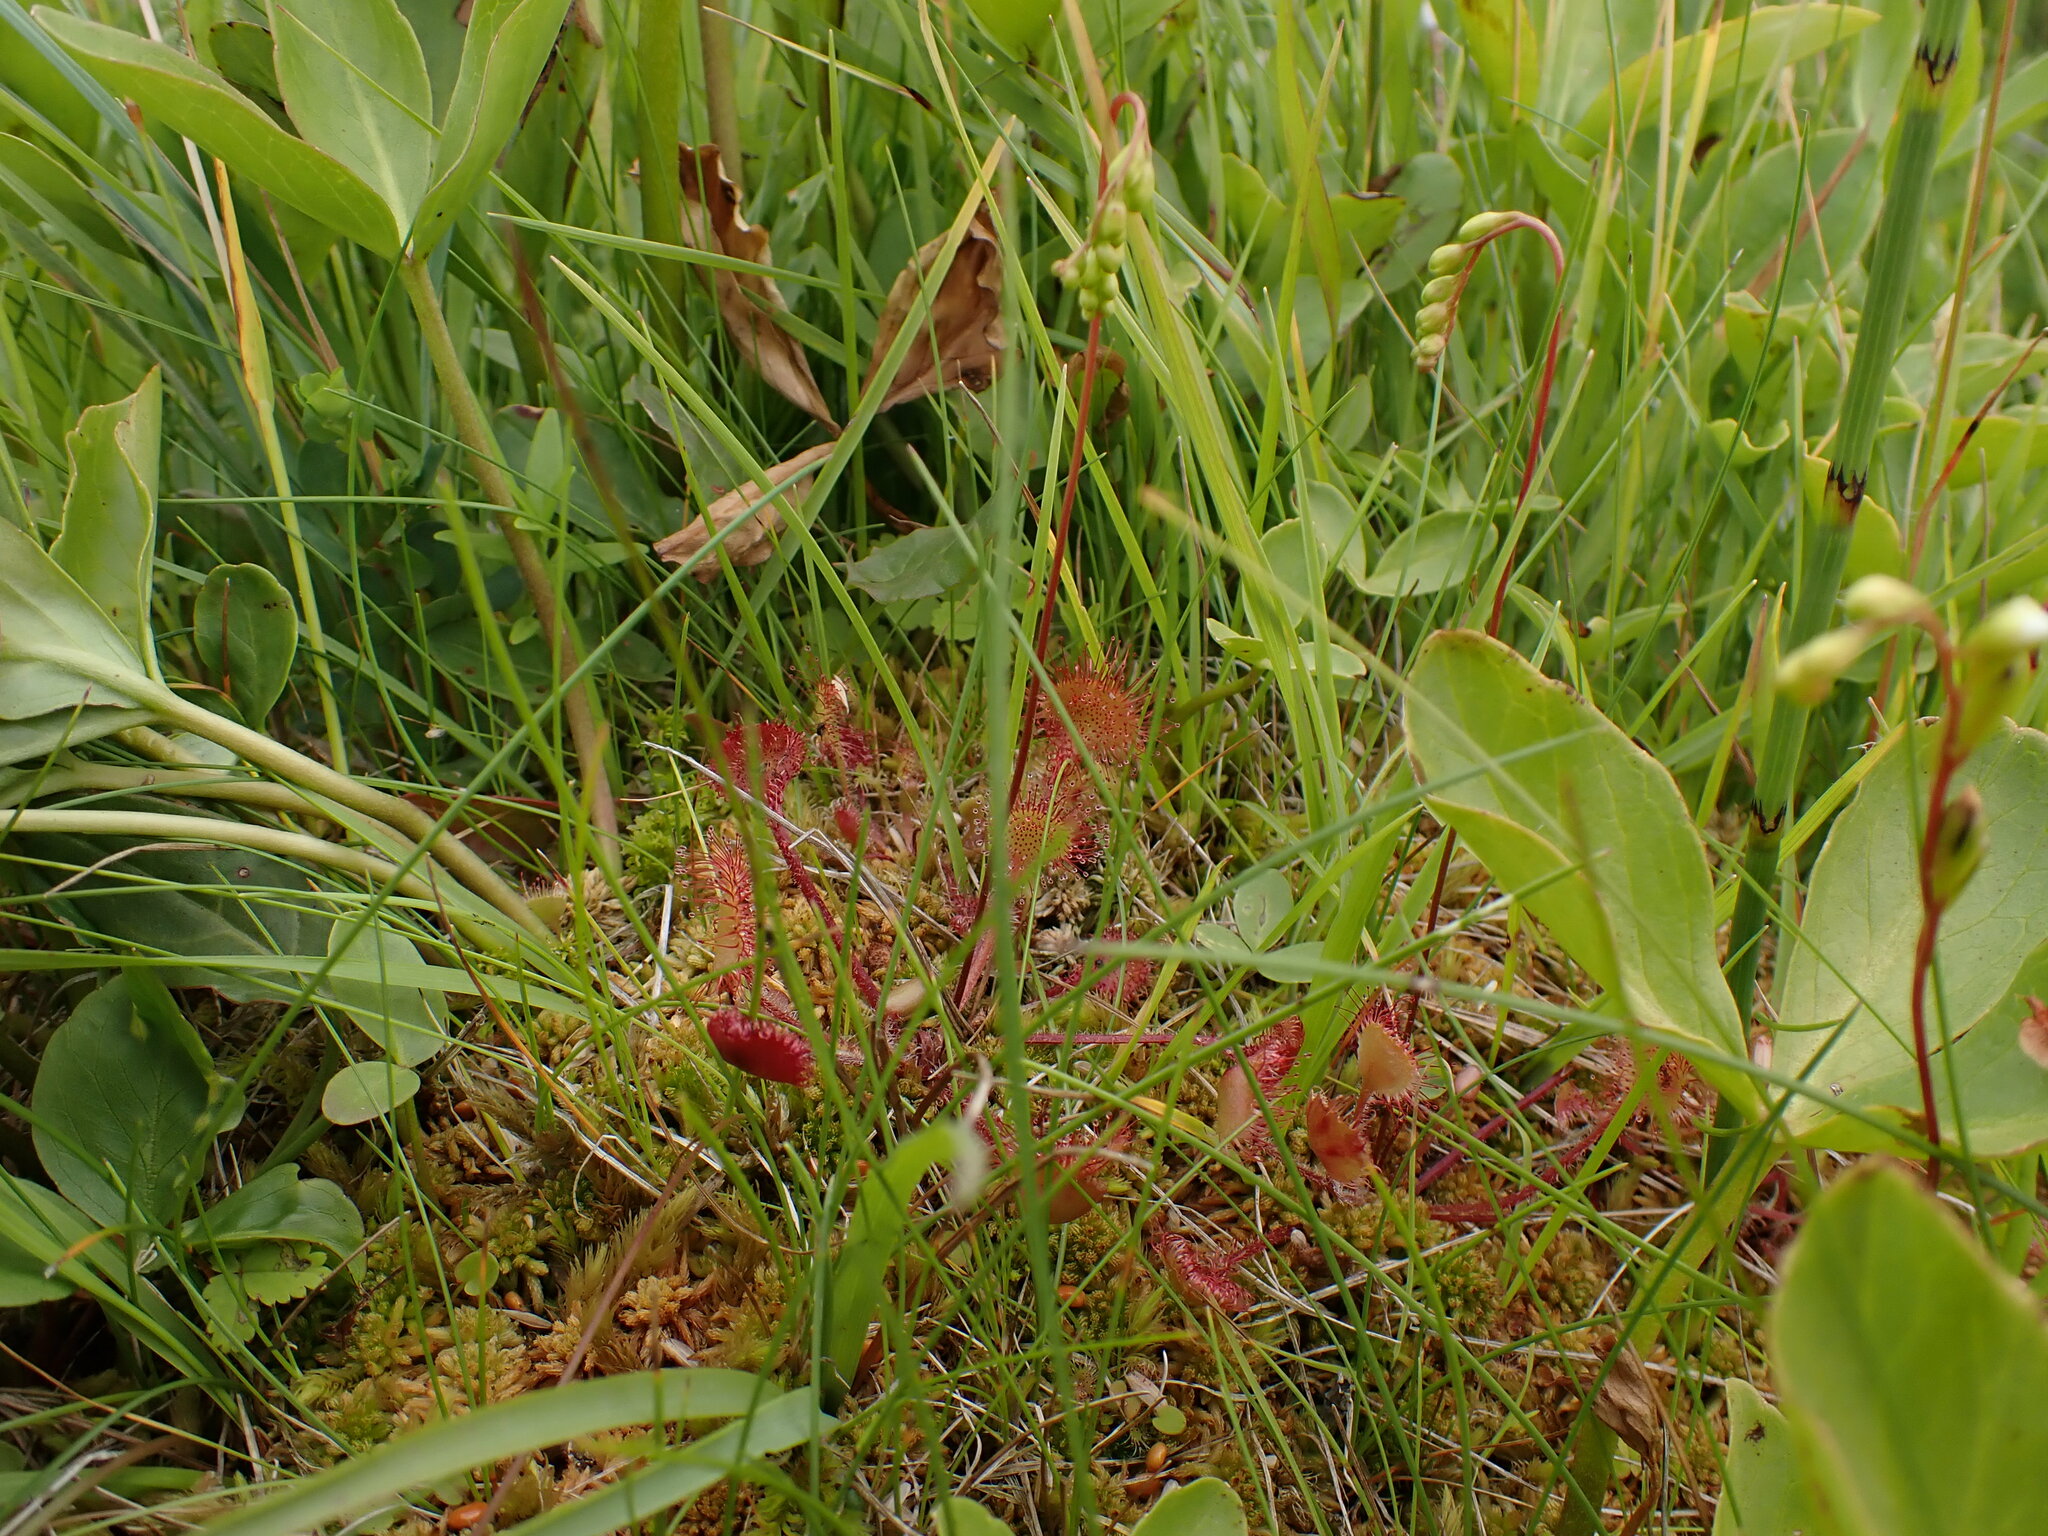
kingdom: Plantae
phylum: Tracheophyta
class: Magnoliopsida
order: Caryophyllales
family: Droseraceae
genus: Drosera
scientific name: Drosera rotundifolia
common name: Round-leaved sundew
